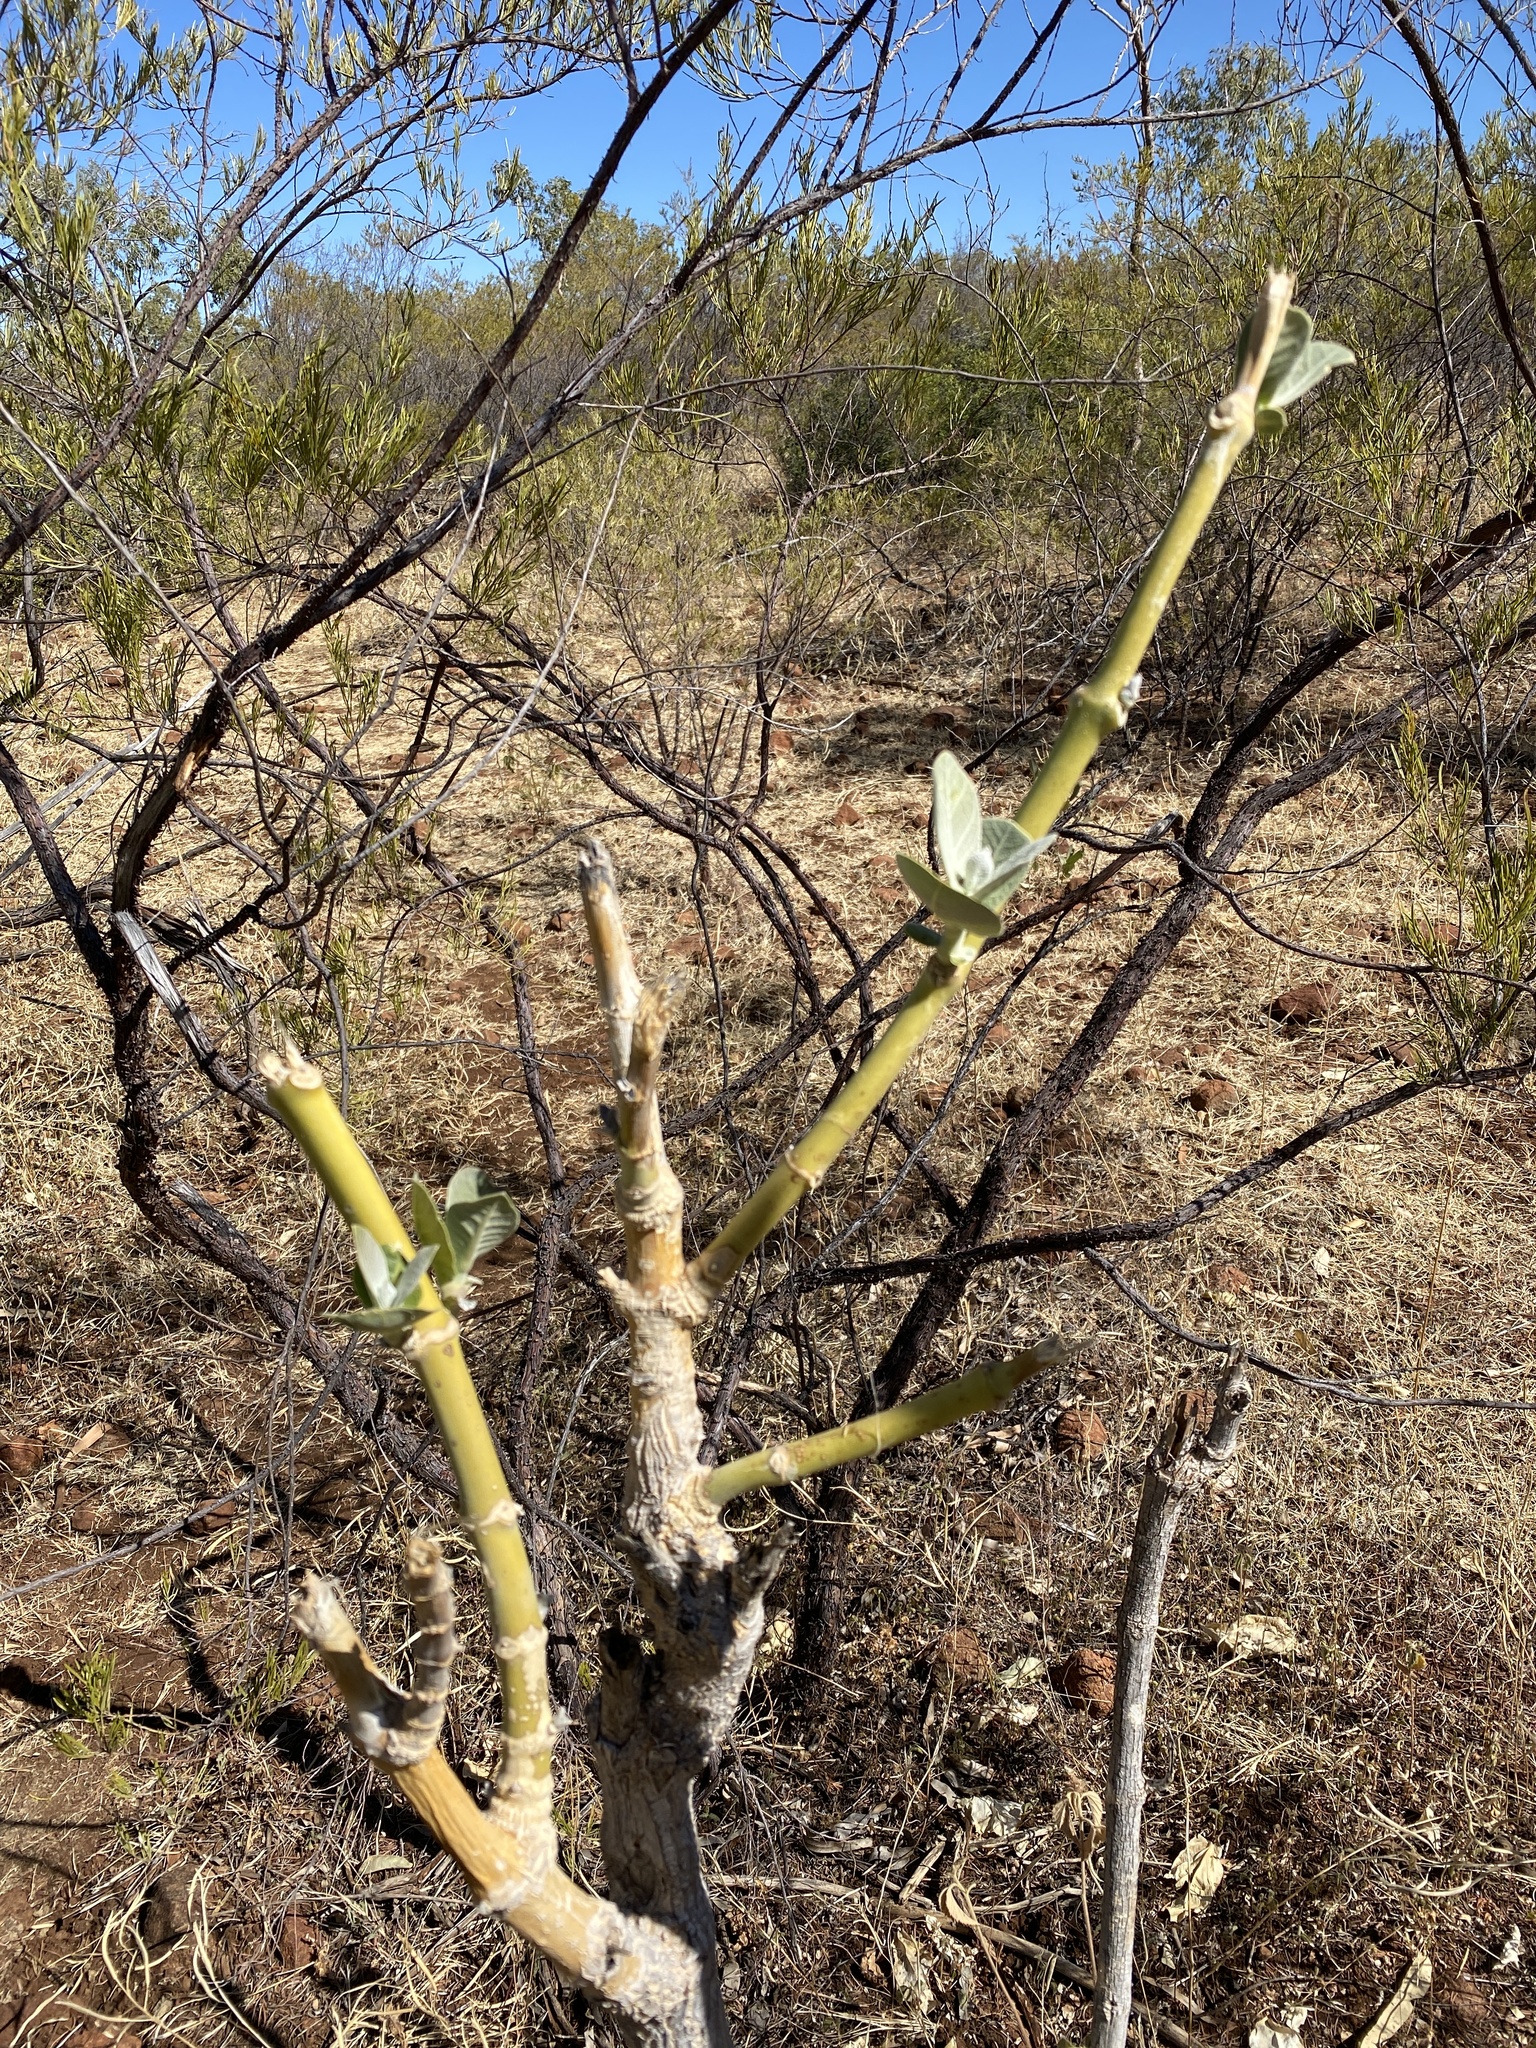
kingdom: Plantae
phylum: Tracheophyta
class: Magnoliopsida
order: Gentianales
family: Apocynaceae
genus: Calotropis
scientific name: Calotropis procera
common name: Roostertree
